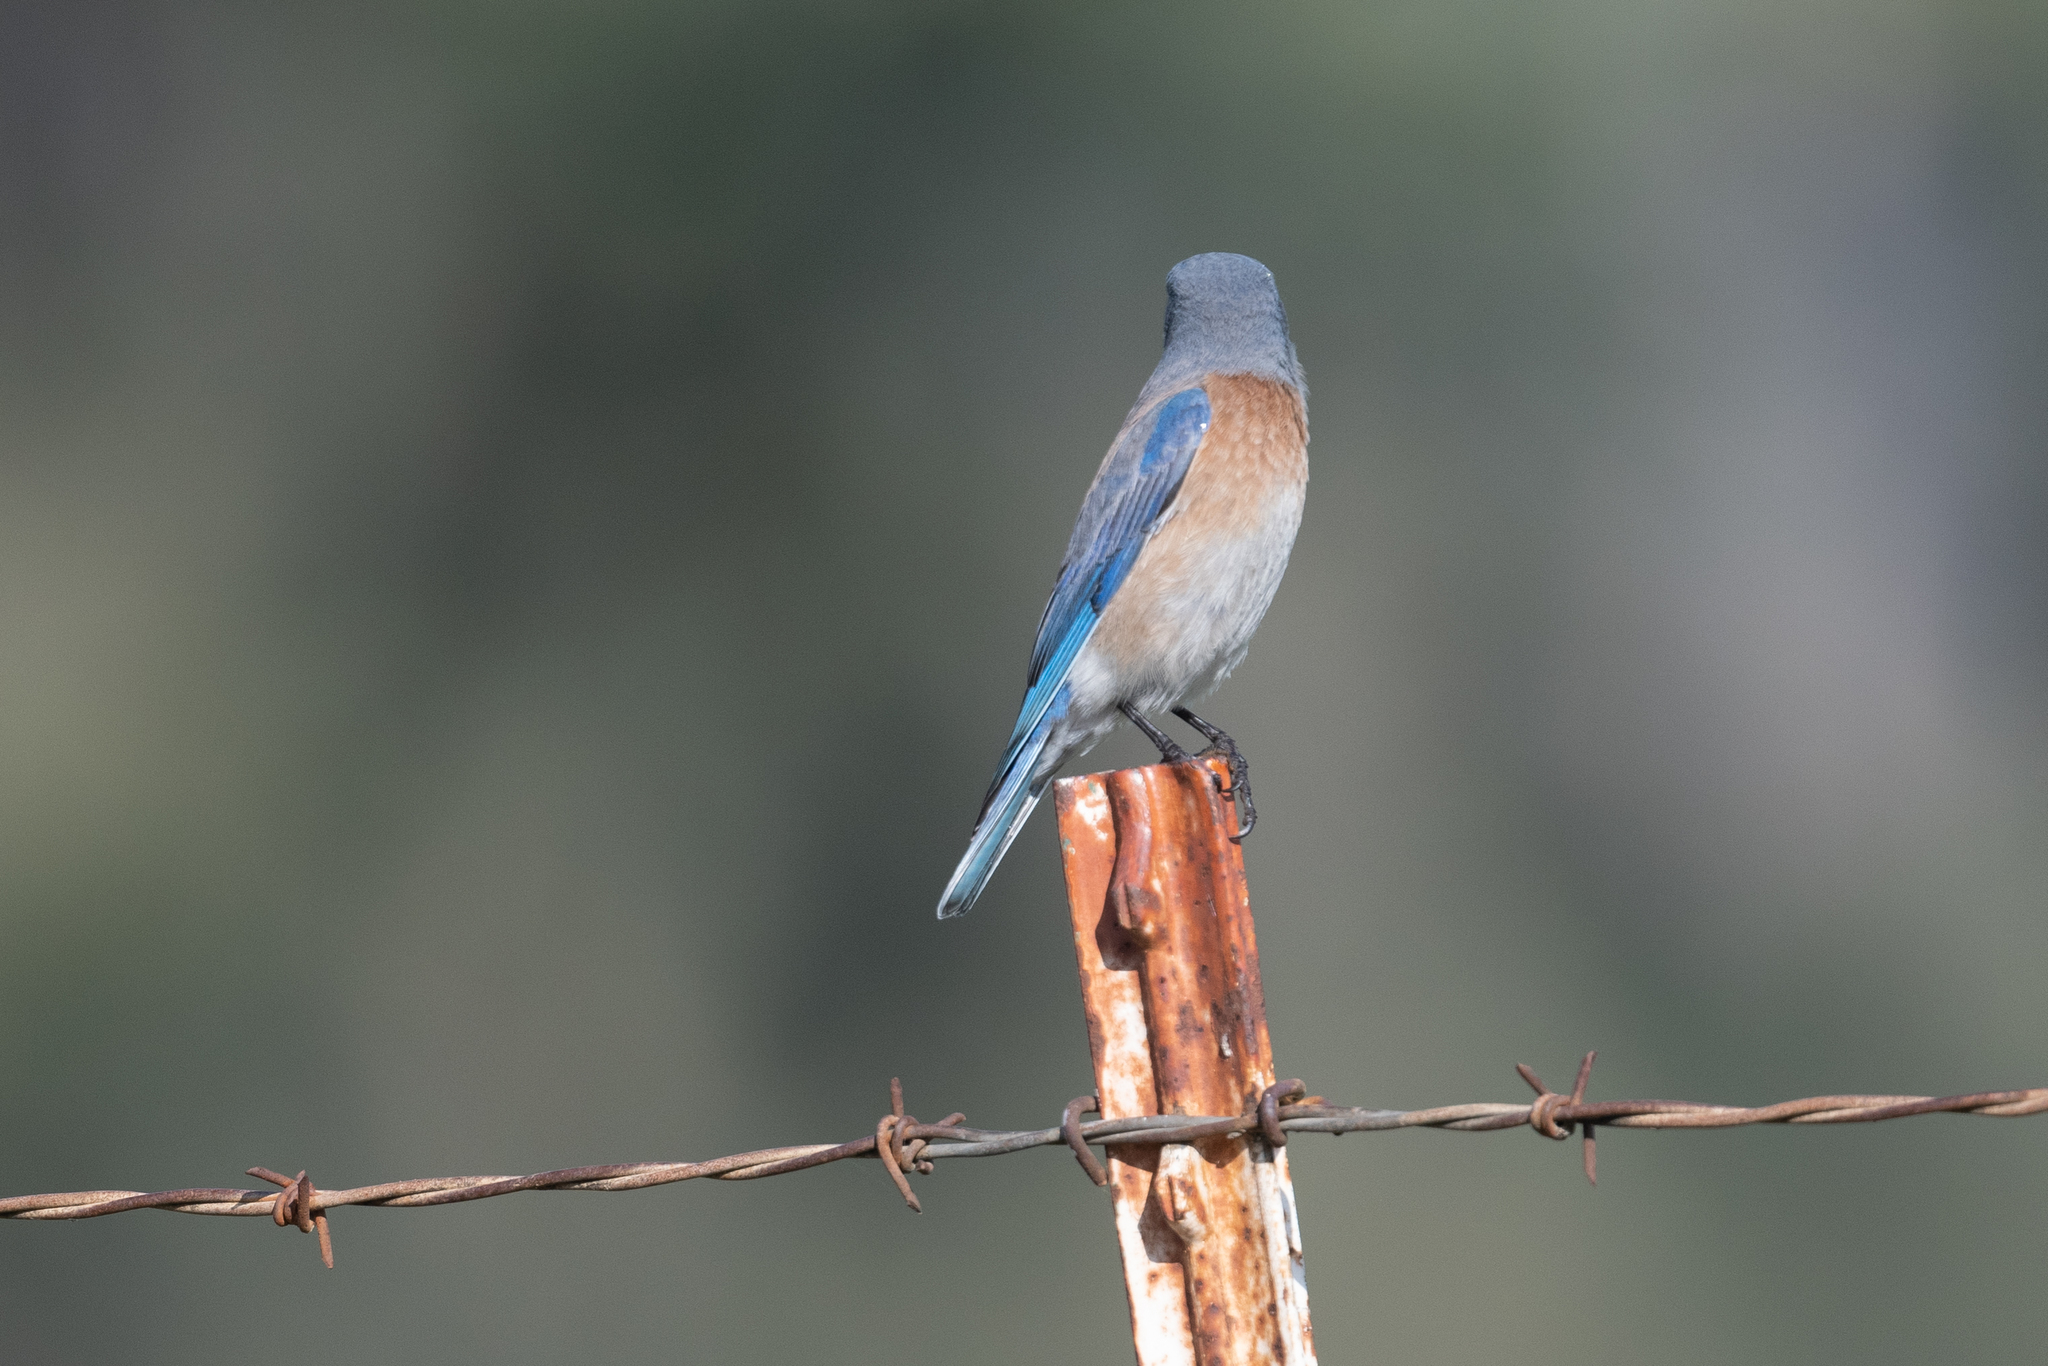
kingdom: Animalia
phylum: Chordata
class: Aves
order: Passeriformes
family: Turdidae
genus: Sialia
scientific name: Sialia mexicana
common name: Western bluebird
